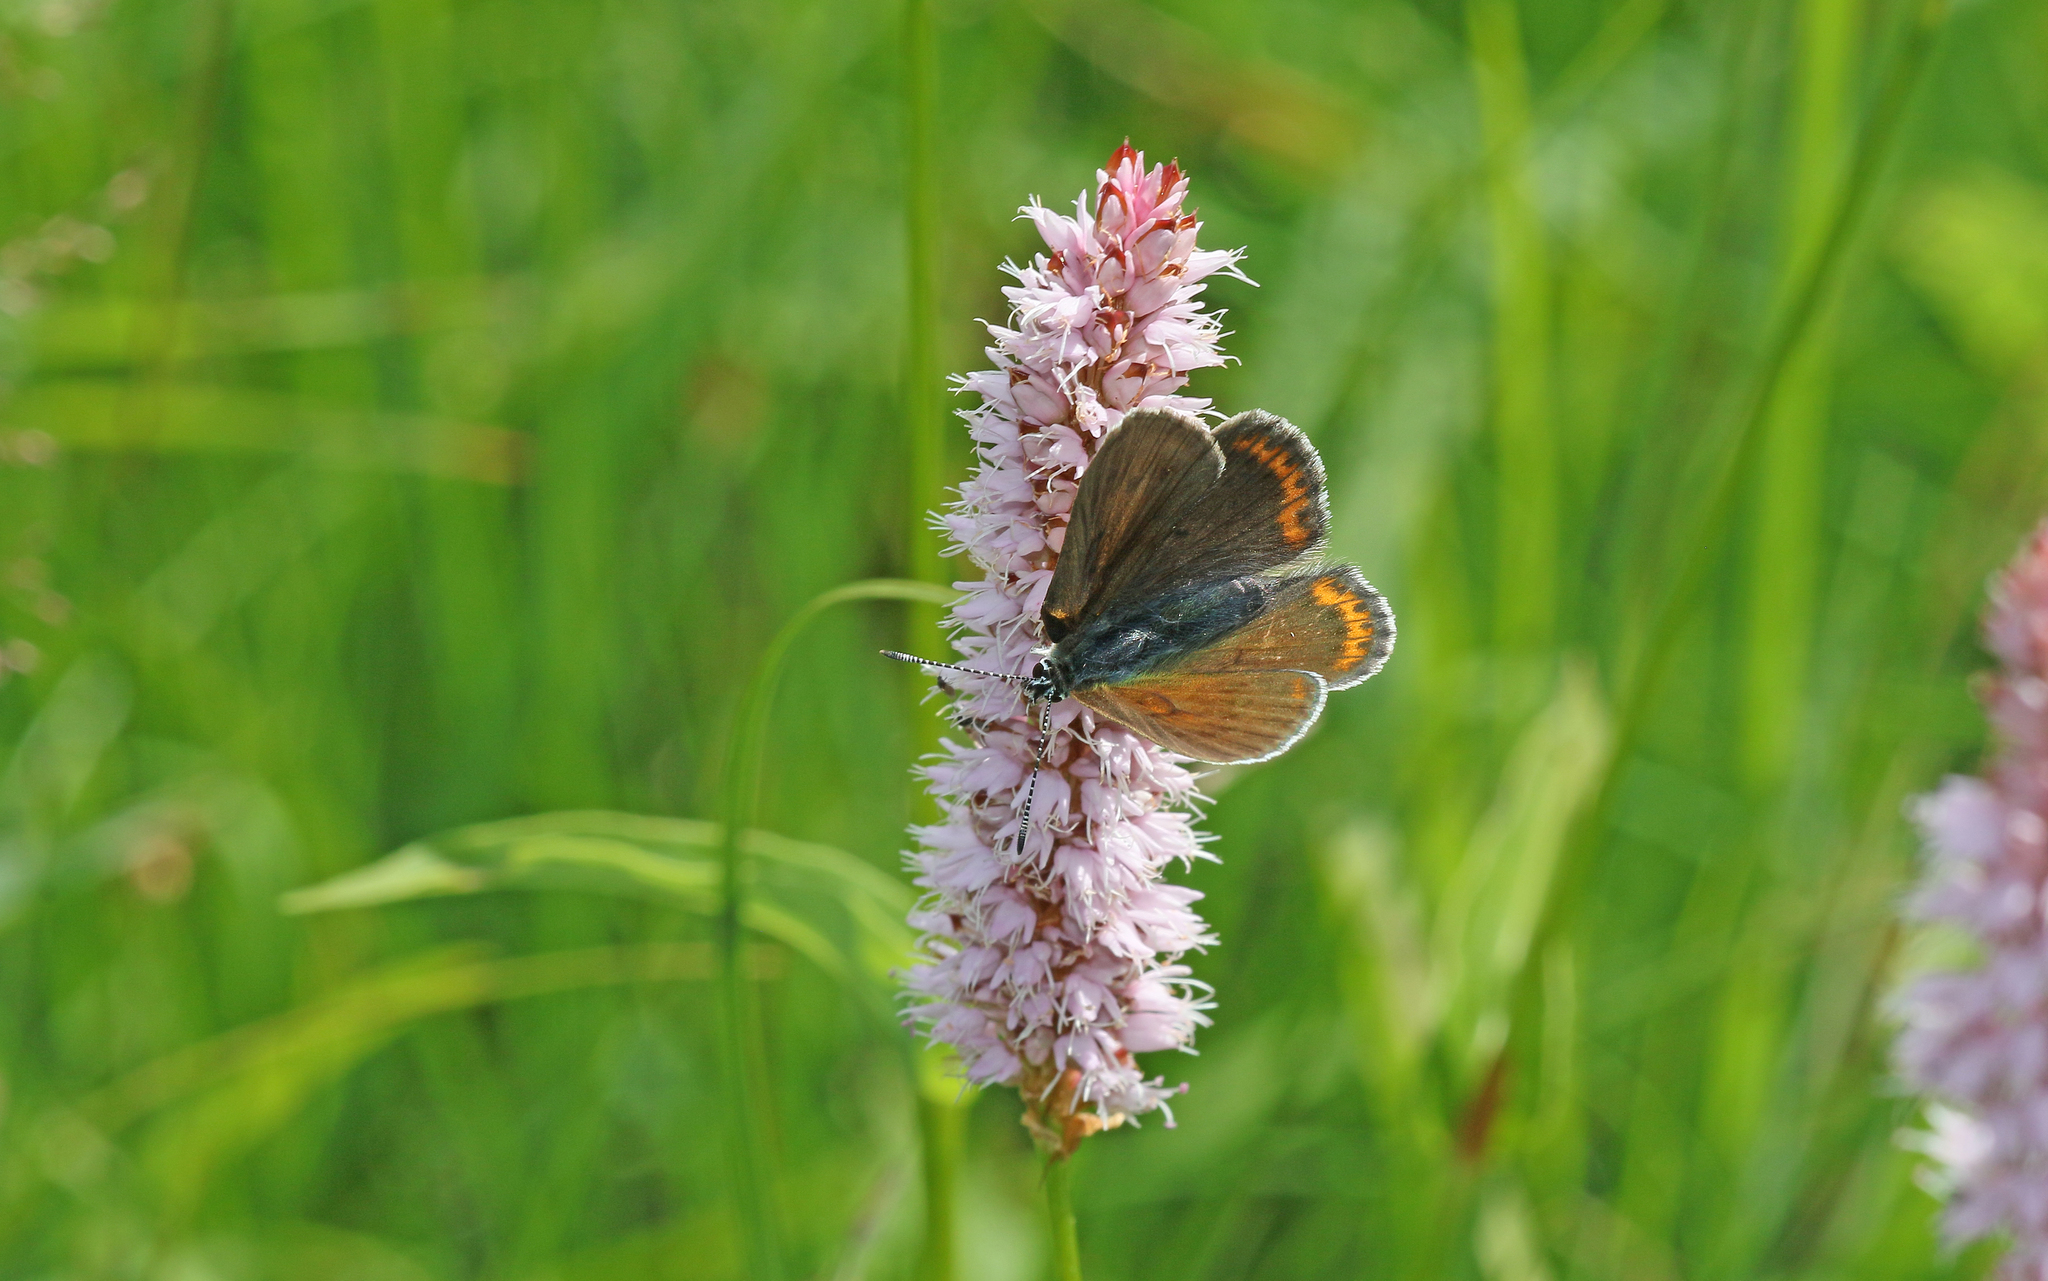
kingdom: Animalia
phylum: Arthropoda
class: Insecta
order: Lepidoptera
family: Lycaenidae
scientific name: Lycaenidae
